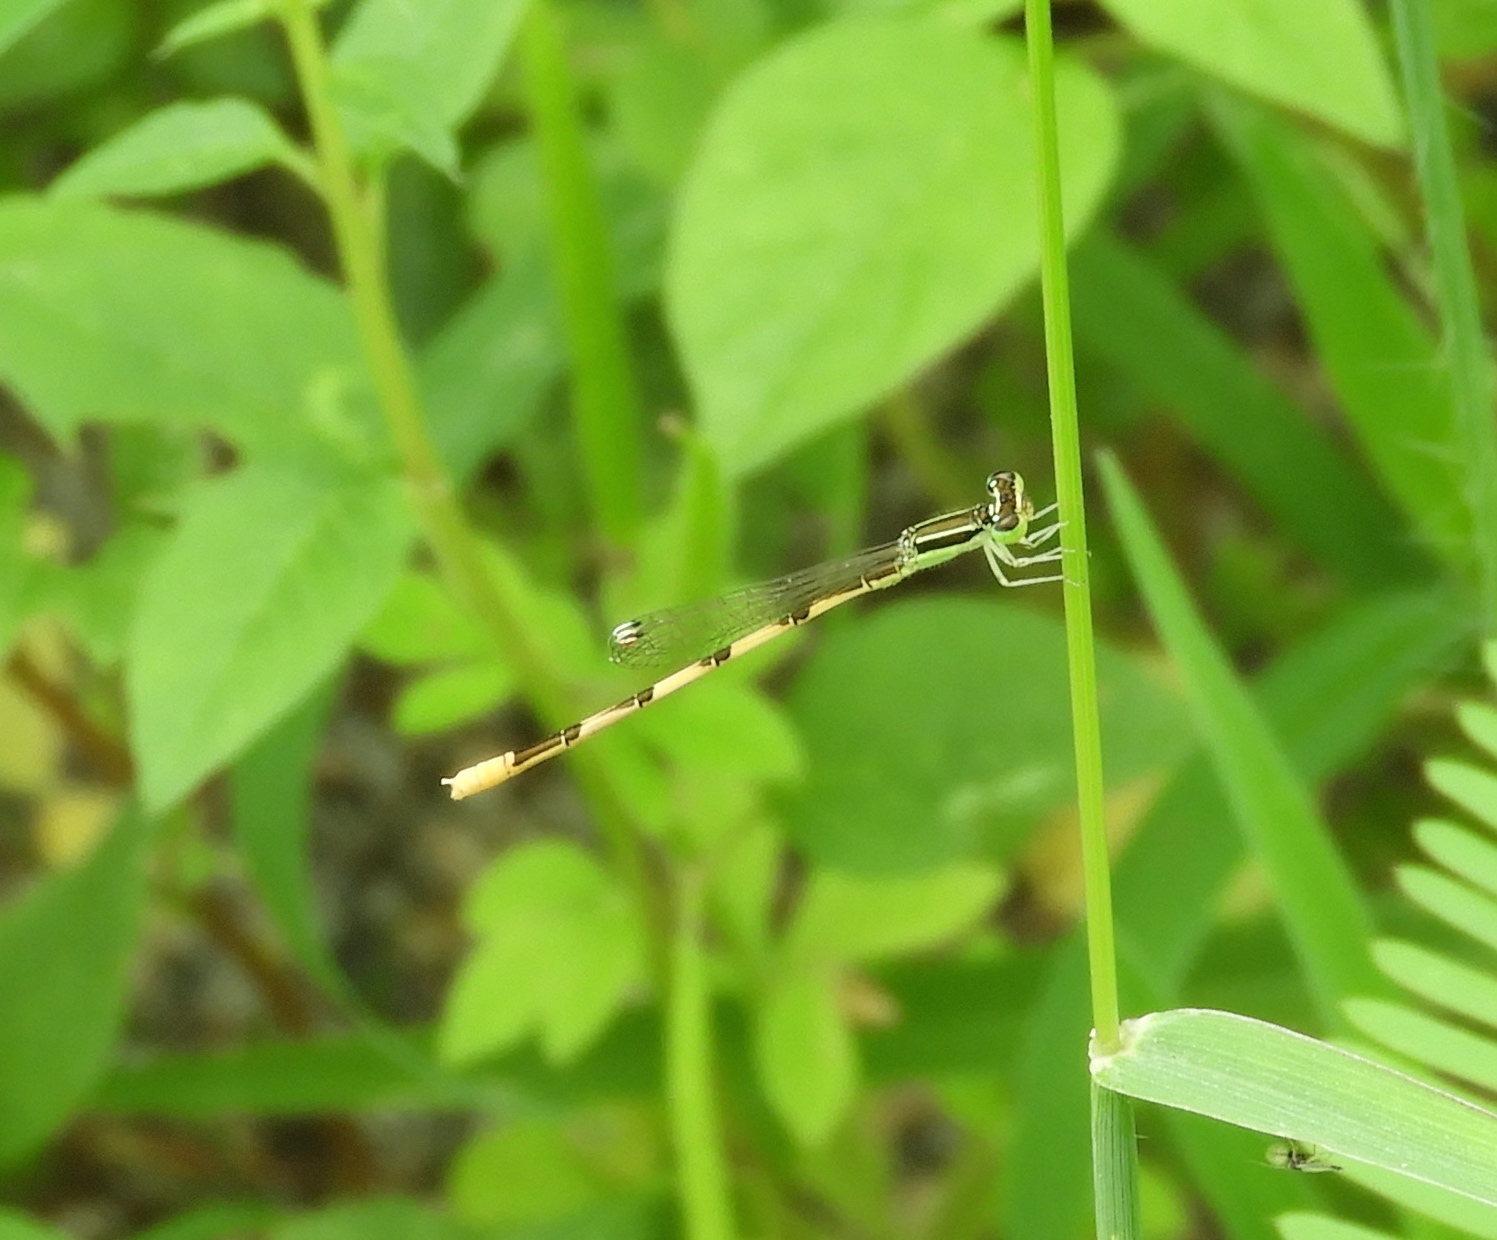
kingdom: Animalia
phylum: Arthropoda
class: Insecta
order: Odonata
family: Coenagrionidae
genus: Ischnura
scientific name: Ischnura hastata
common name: Citrine forktail
